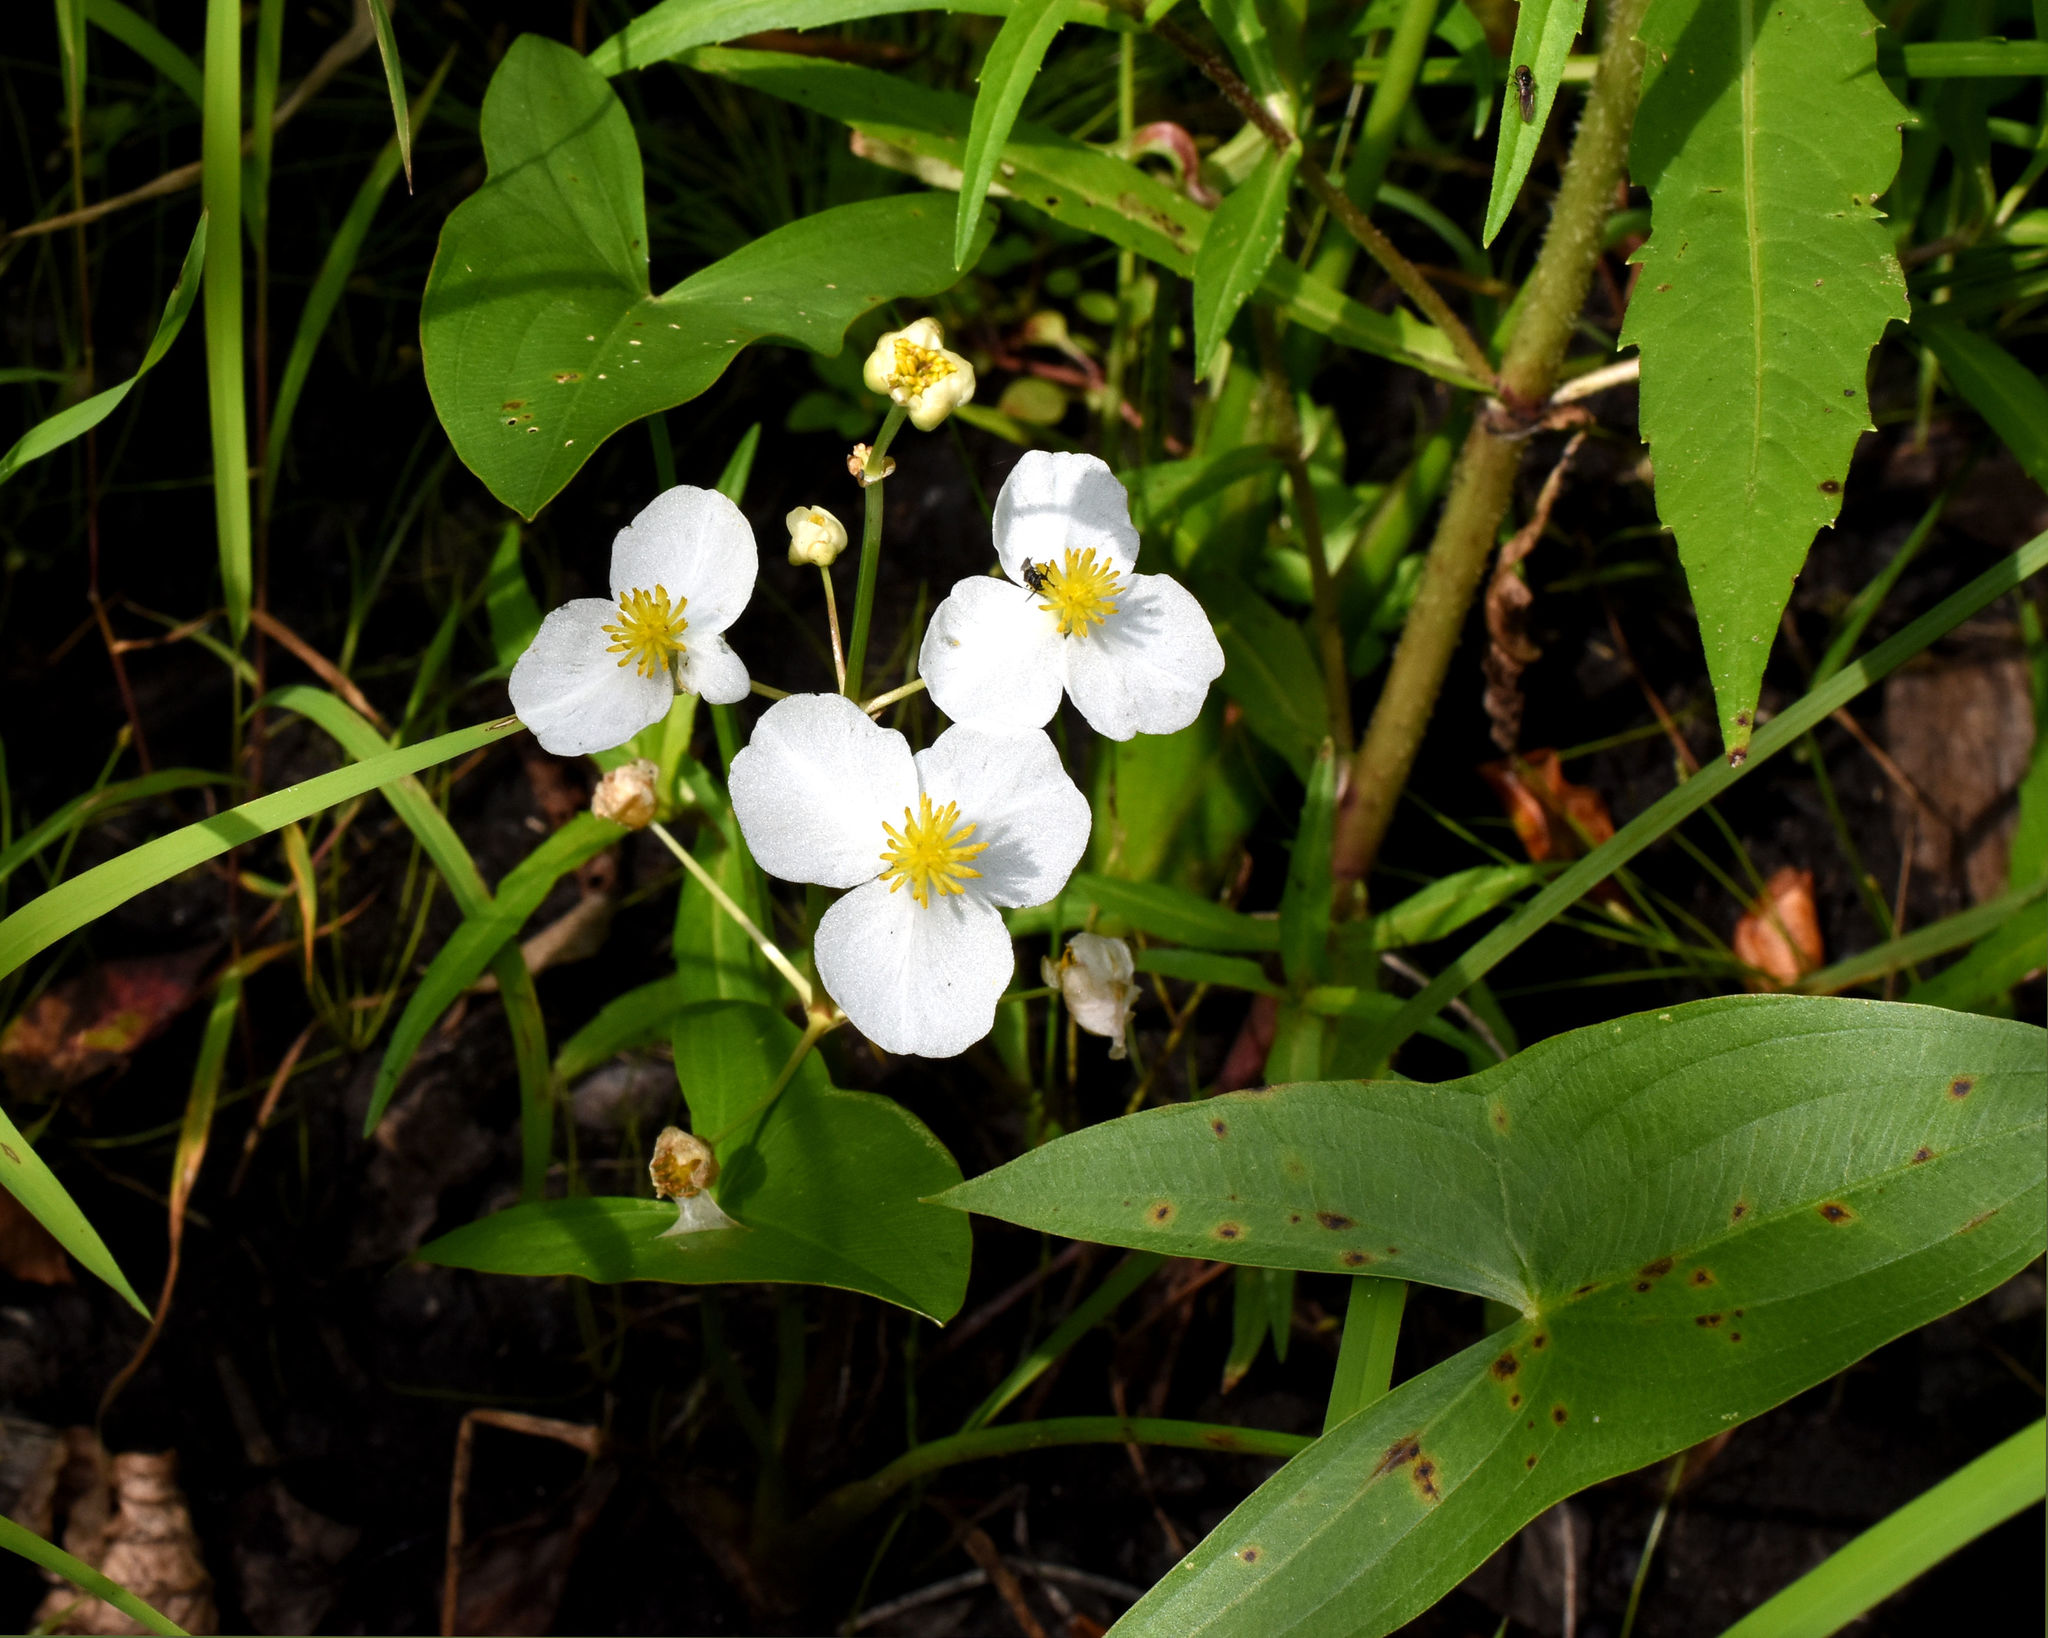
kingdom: Plantae
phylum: Tracheophyta
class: Liliopsida
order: Alismatales
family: Alismataceae
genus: Sagittaria
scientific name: Sagittaria latifolia
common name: Duck-potato
